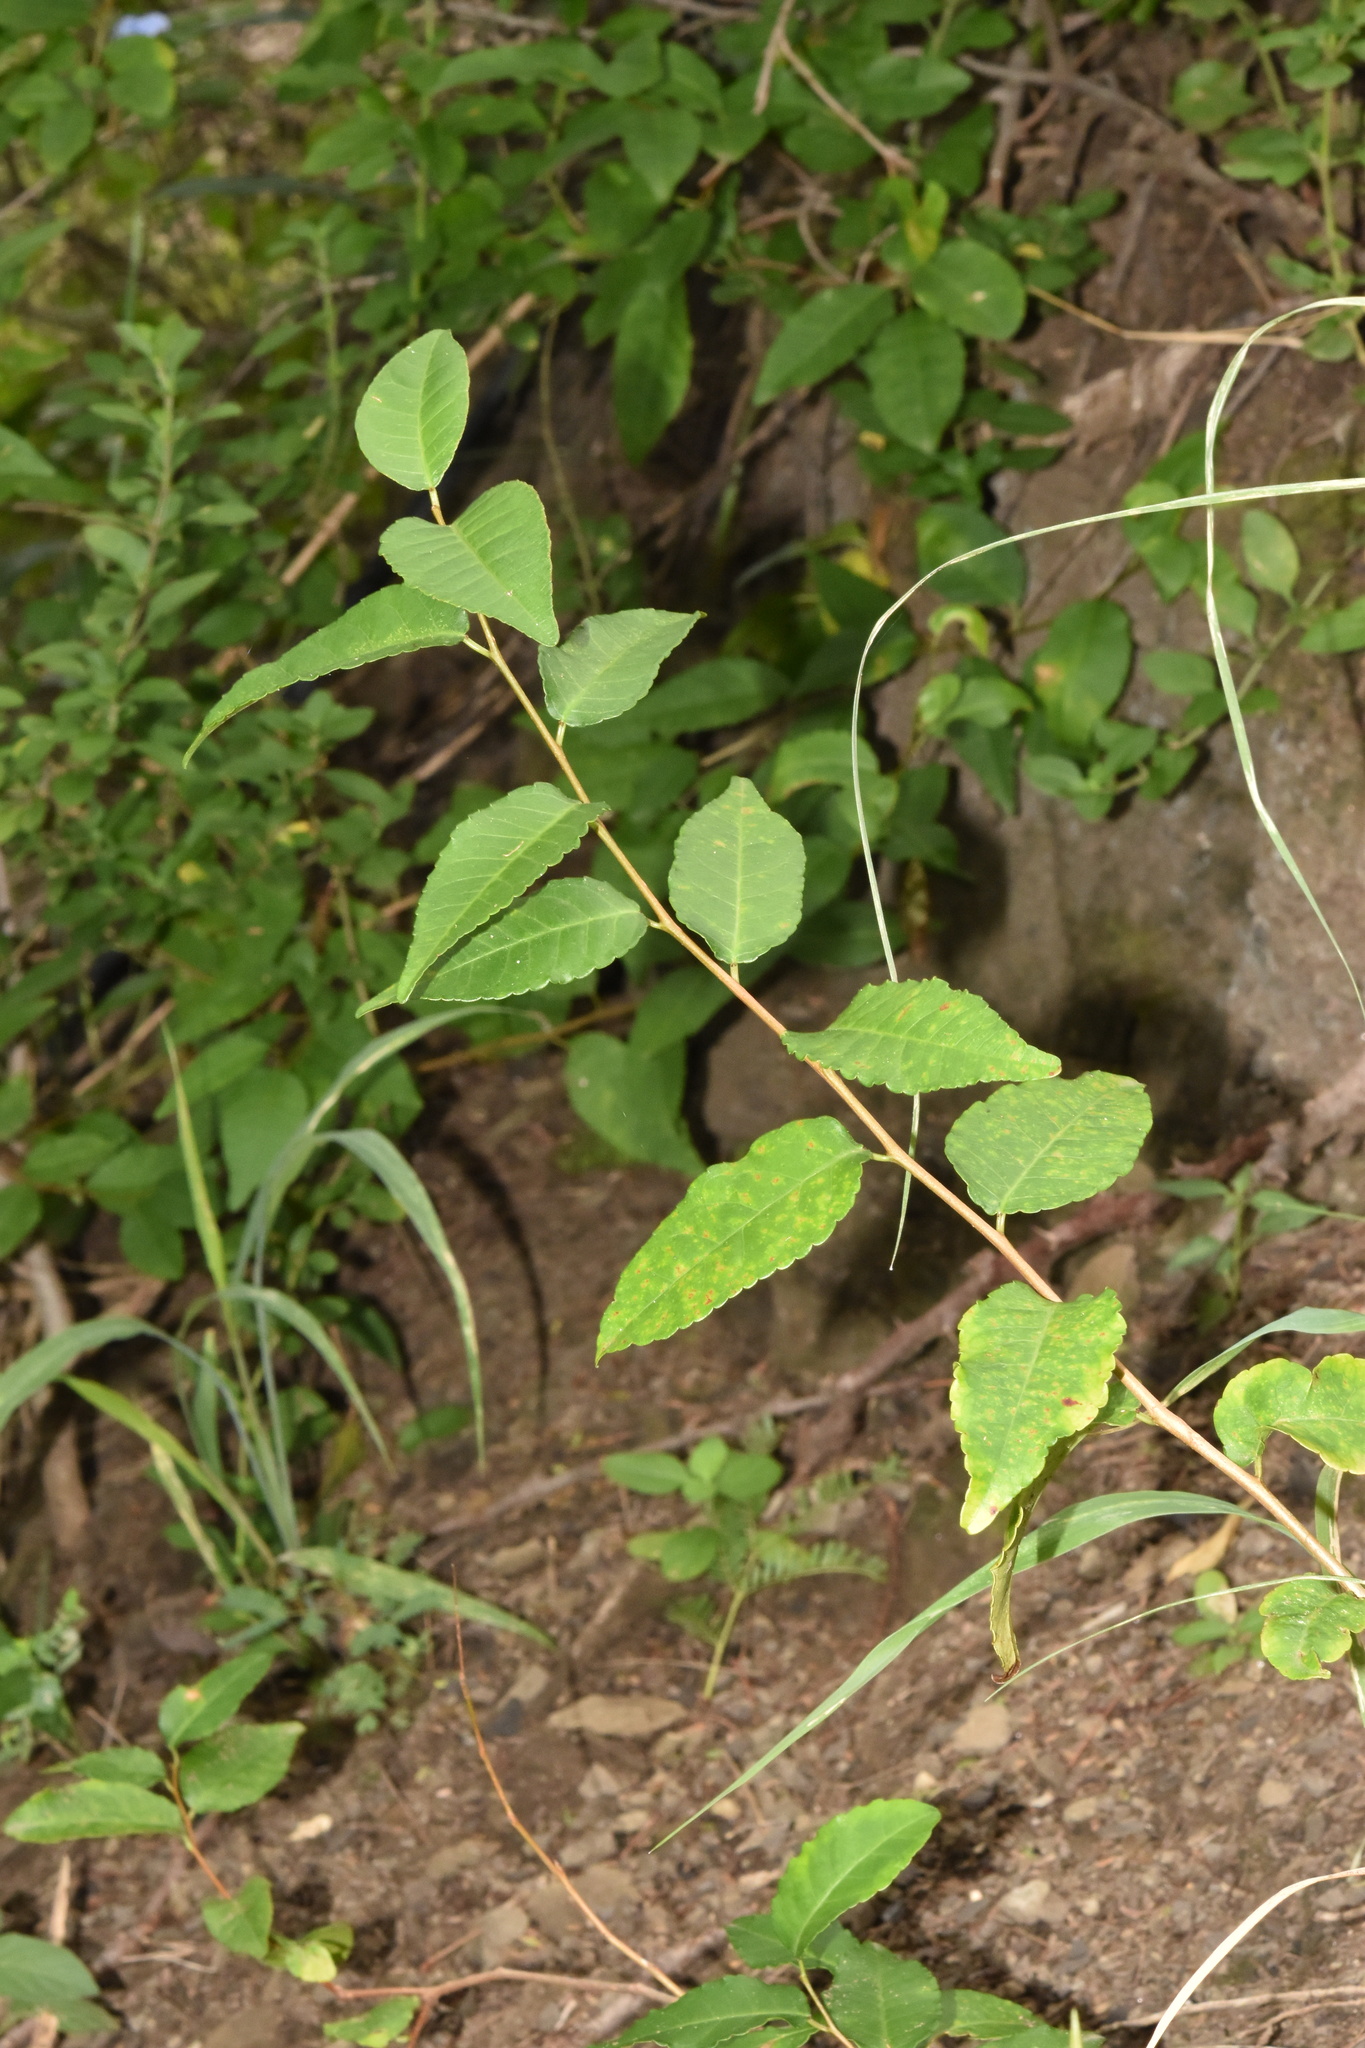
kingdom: Plantae
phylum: Tracheophyta
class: Magnoliopsida
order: Malpighiales
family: Euphorbiaceae
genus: Spirostachys
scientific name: Spirostachys africana
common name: Tamboti
